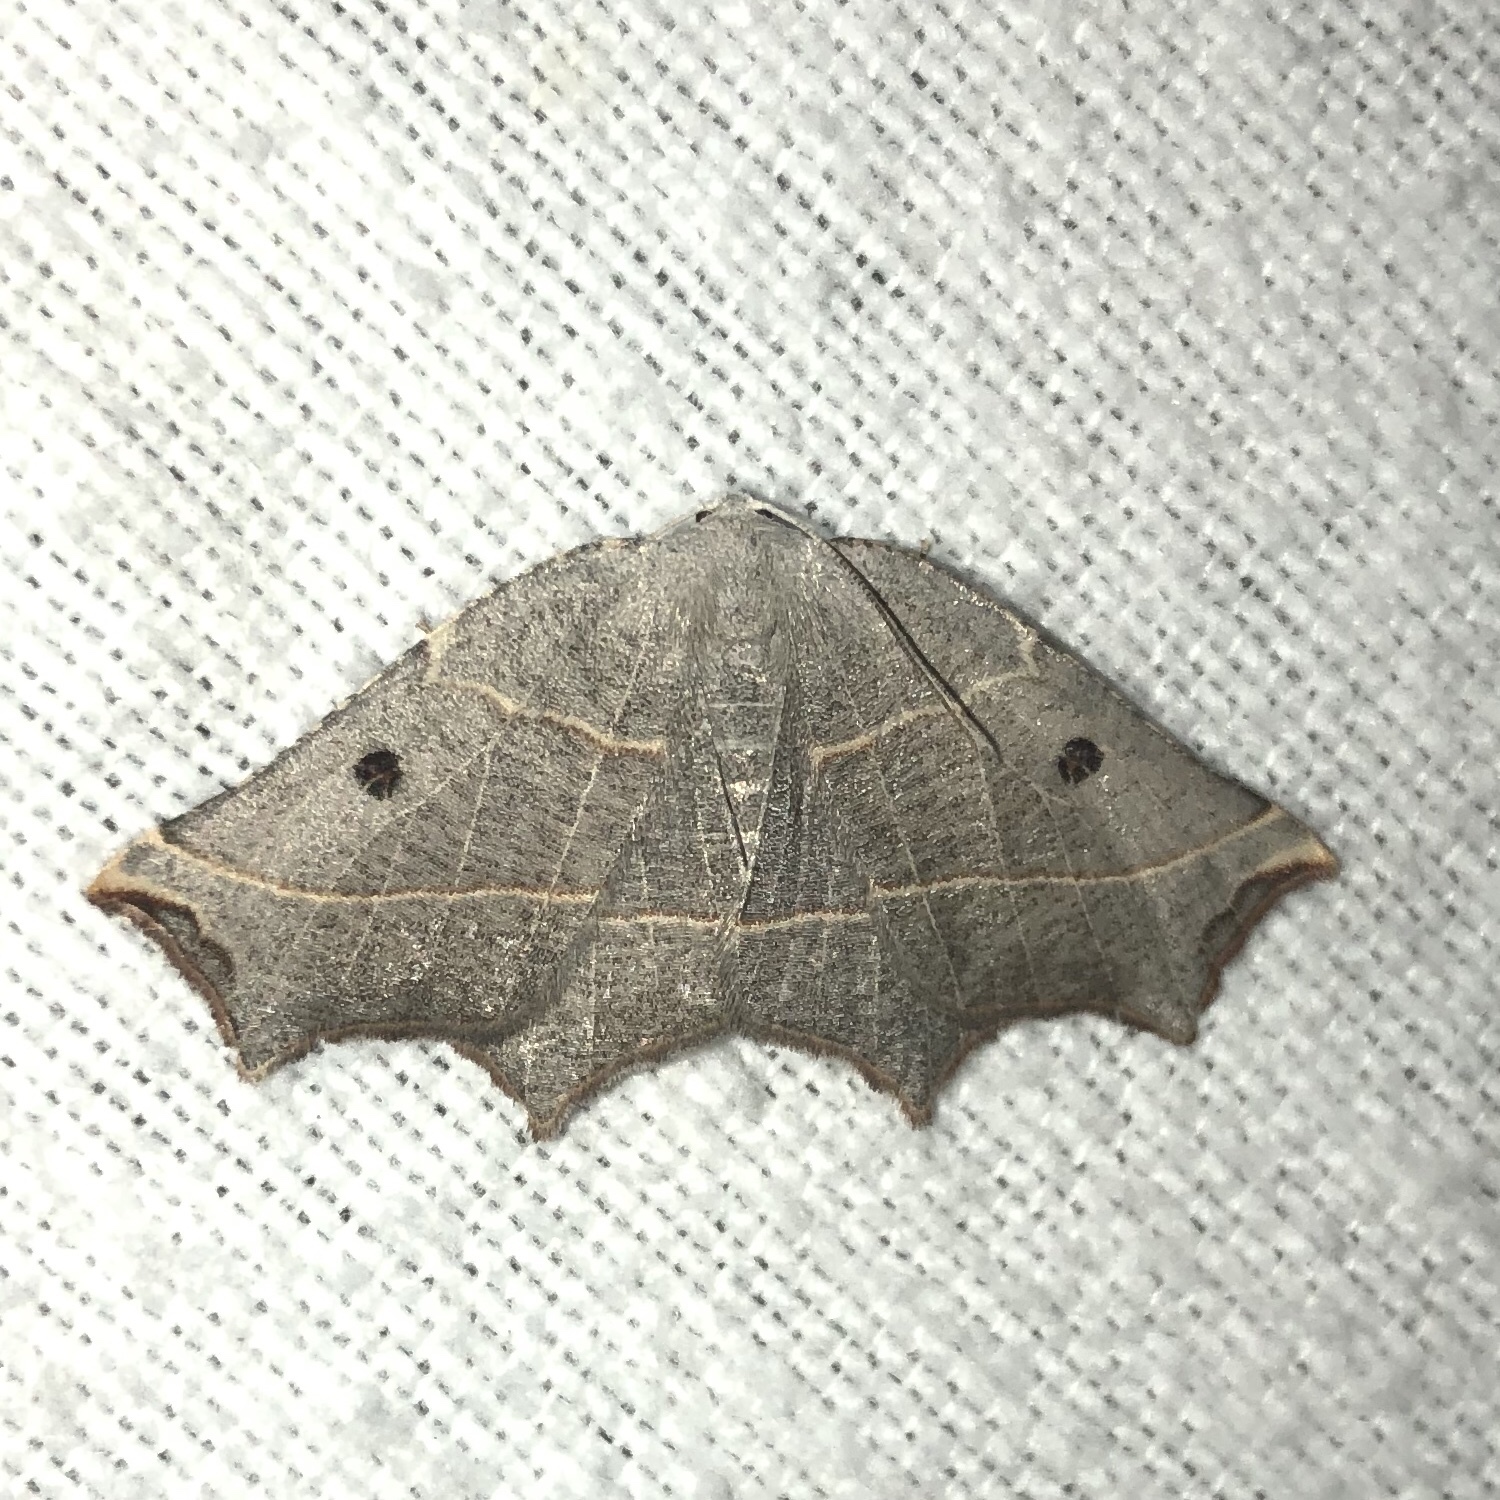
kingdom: Animalia
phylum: Arthropoda
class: Insecta
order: Lepidoptera
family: Geometridae
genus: Metanema
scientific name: Metanema inatomaria
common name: Pale metanema
